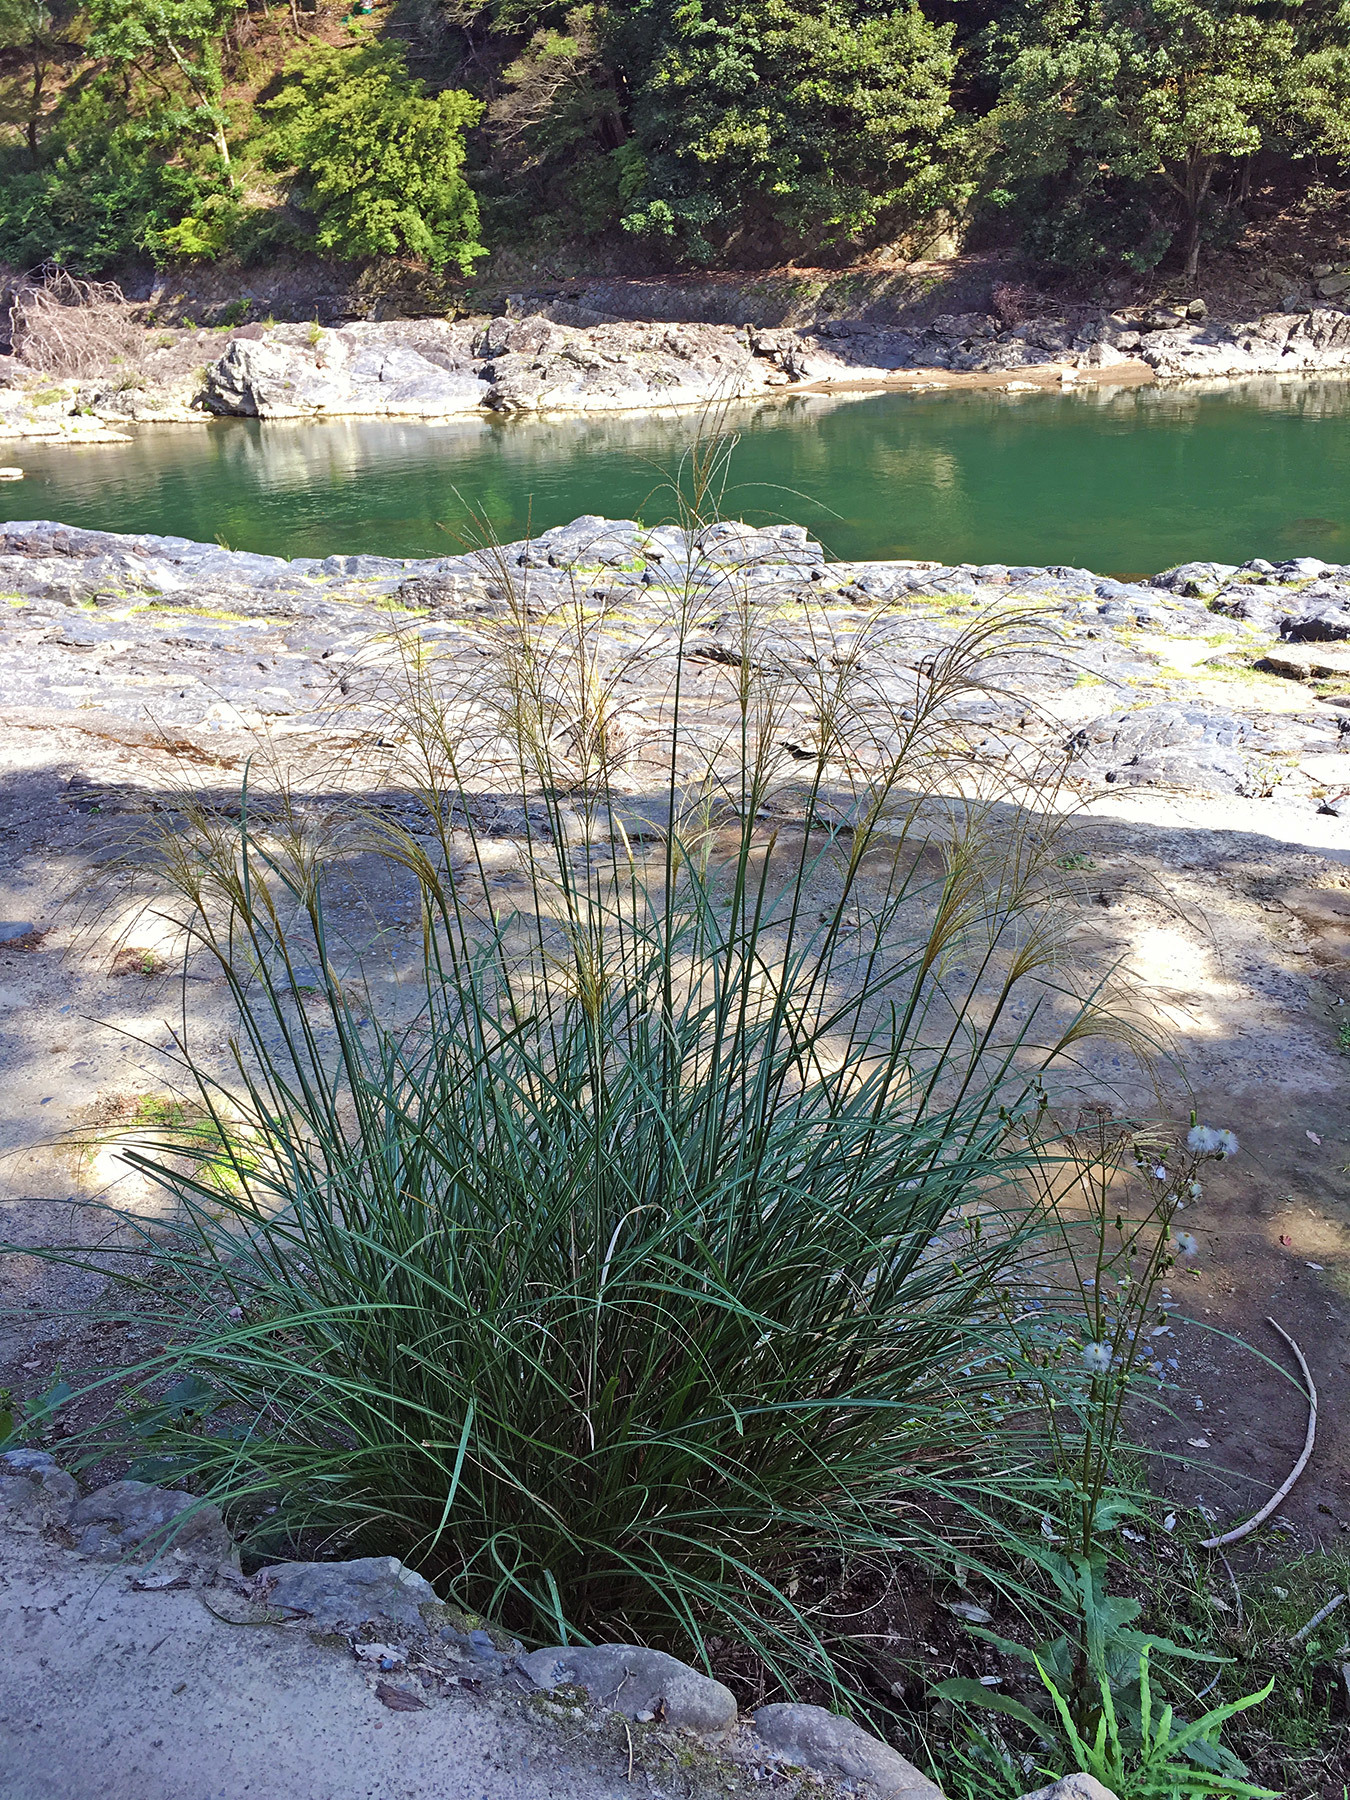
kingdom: Plantae
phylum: Tracheophyta
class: Liliopsida
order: Poales
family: Poaceae
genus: Miscanthus
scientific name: Miscanthus sinensis
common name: Chinese silvergrass
